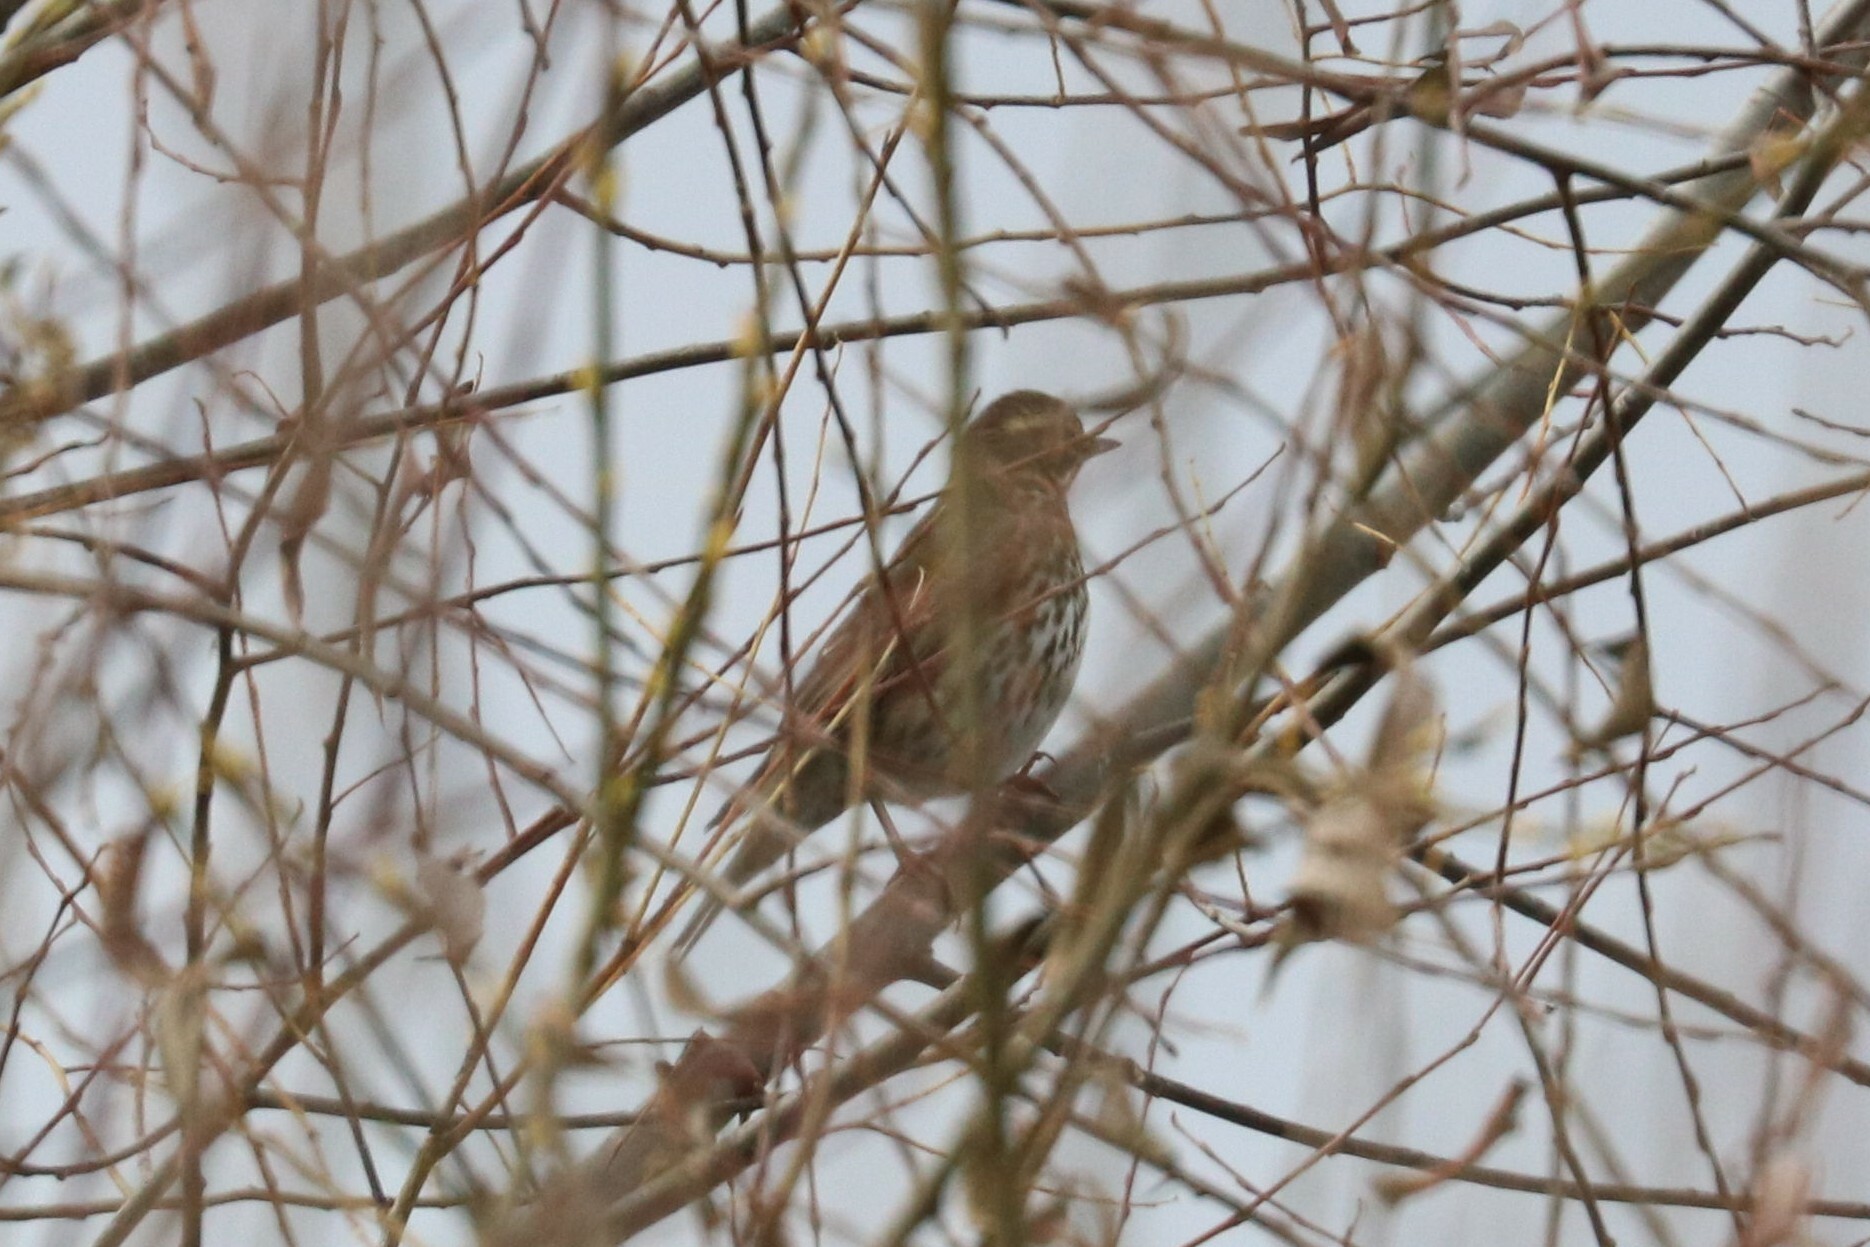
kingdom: Animalia
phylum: Chordata
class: Aves
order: Passeriformes
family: Turdidae
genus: Turdus
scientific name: Turdus iliacus
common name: Redwing
